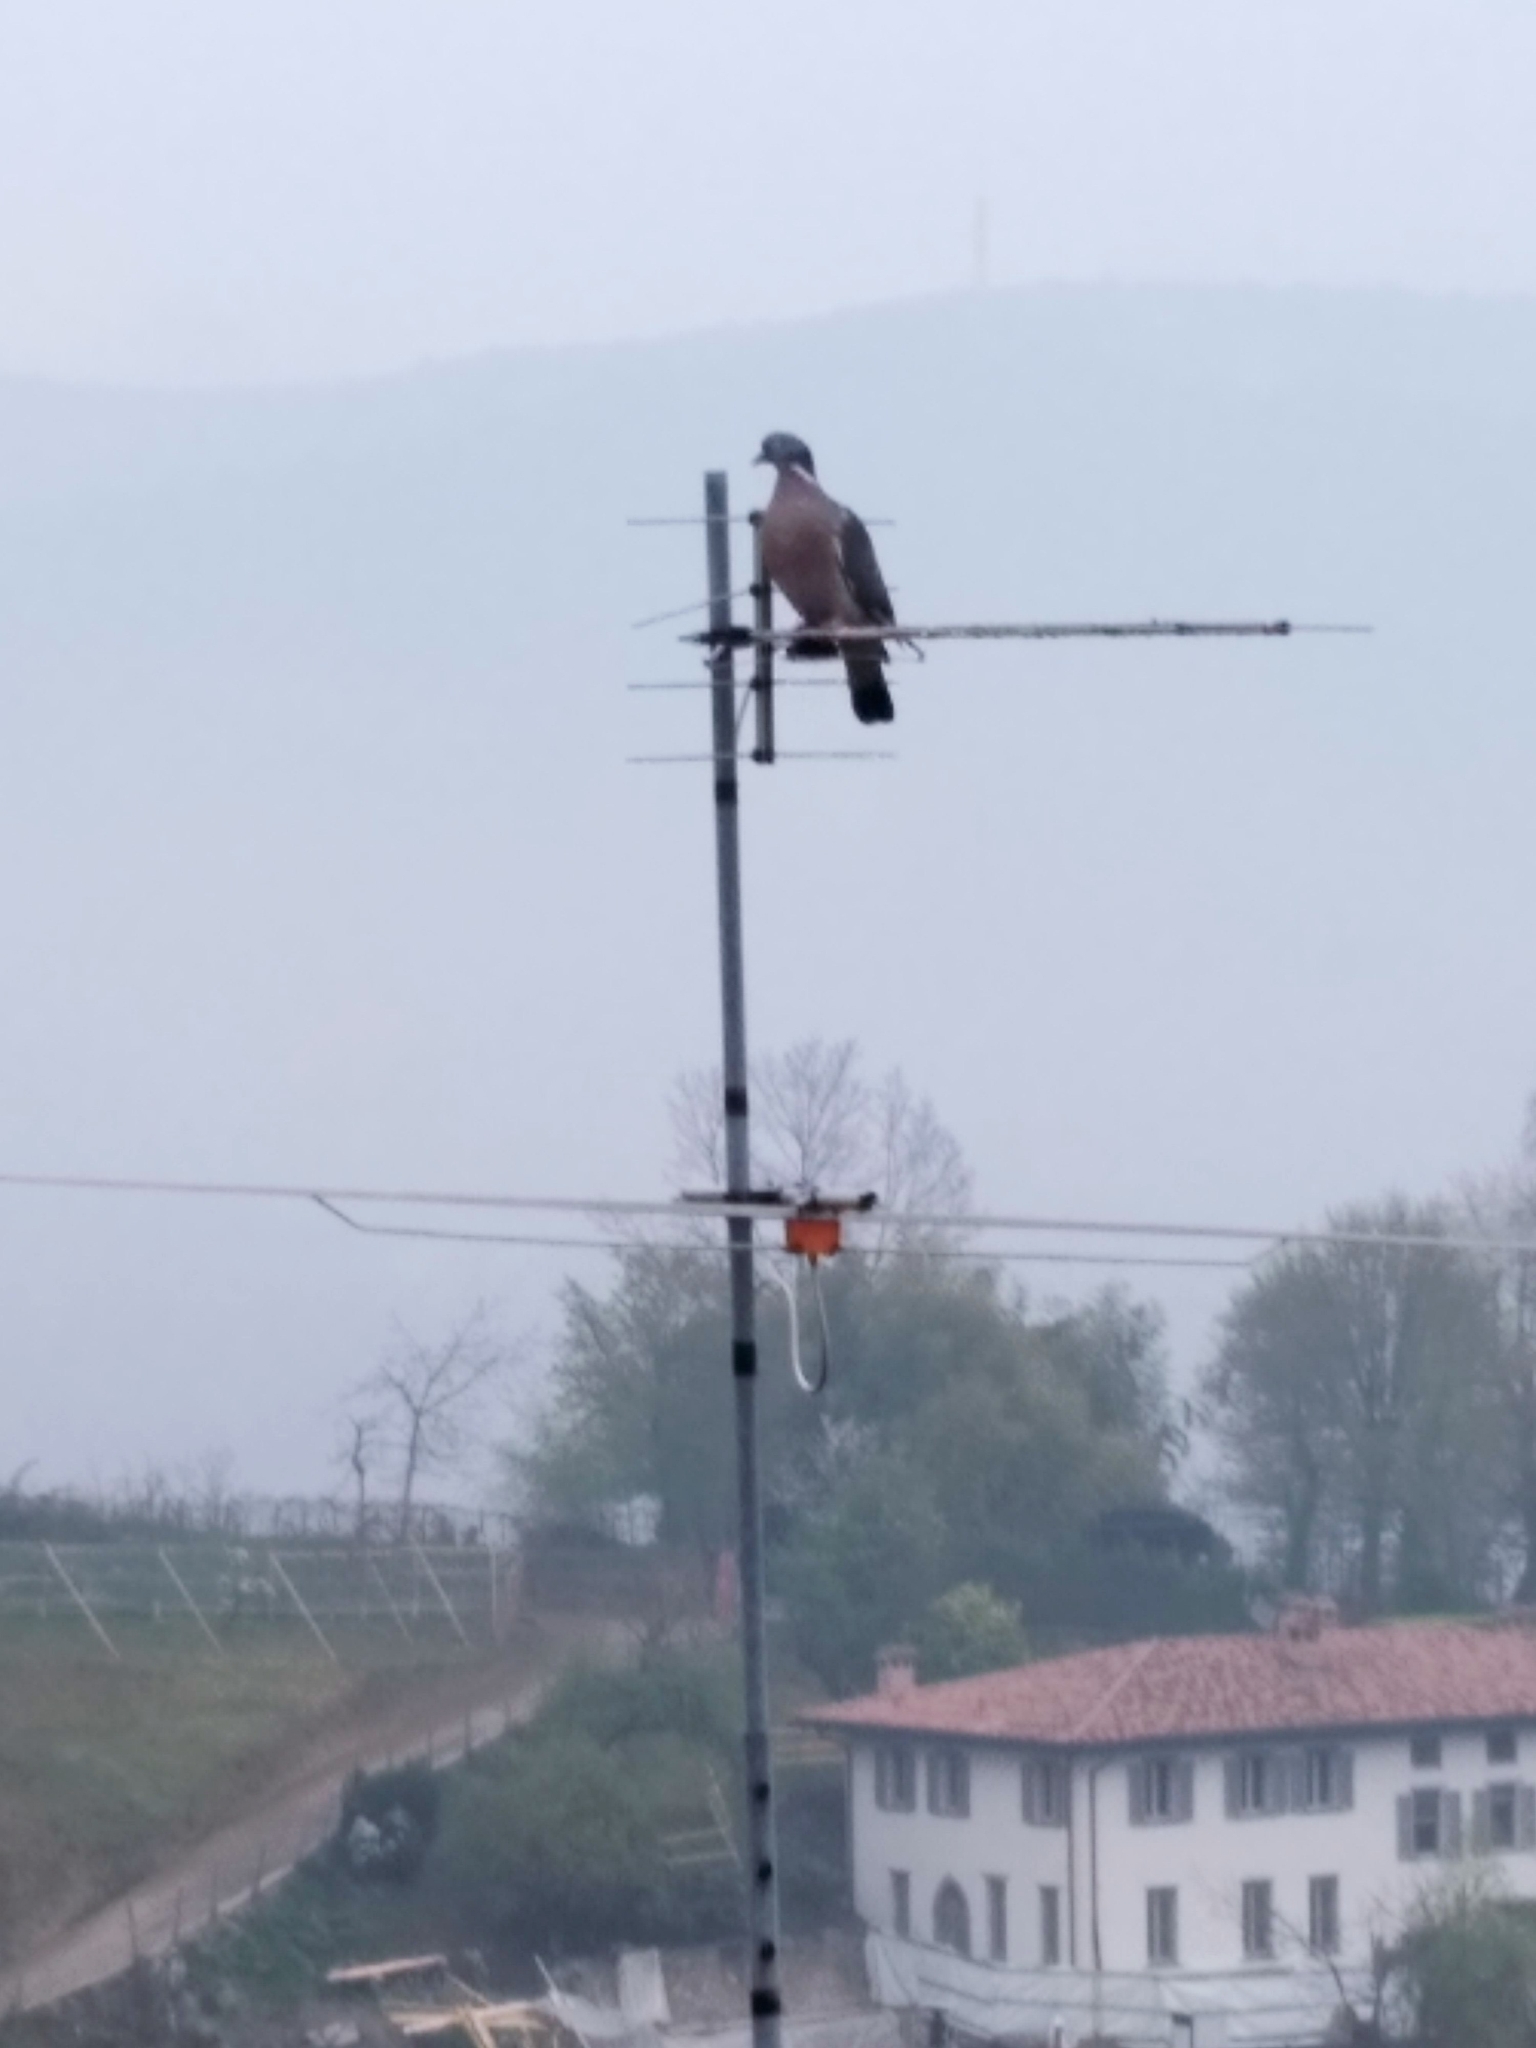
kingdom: Animalia
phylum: Chordata
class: Aves
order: Columbiformes
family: Columbidae
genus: Columba
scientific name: Columba palumbus
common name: Common wood pigeon
